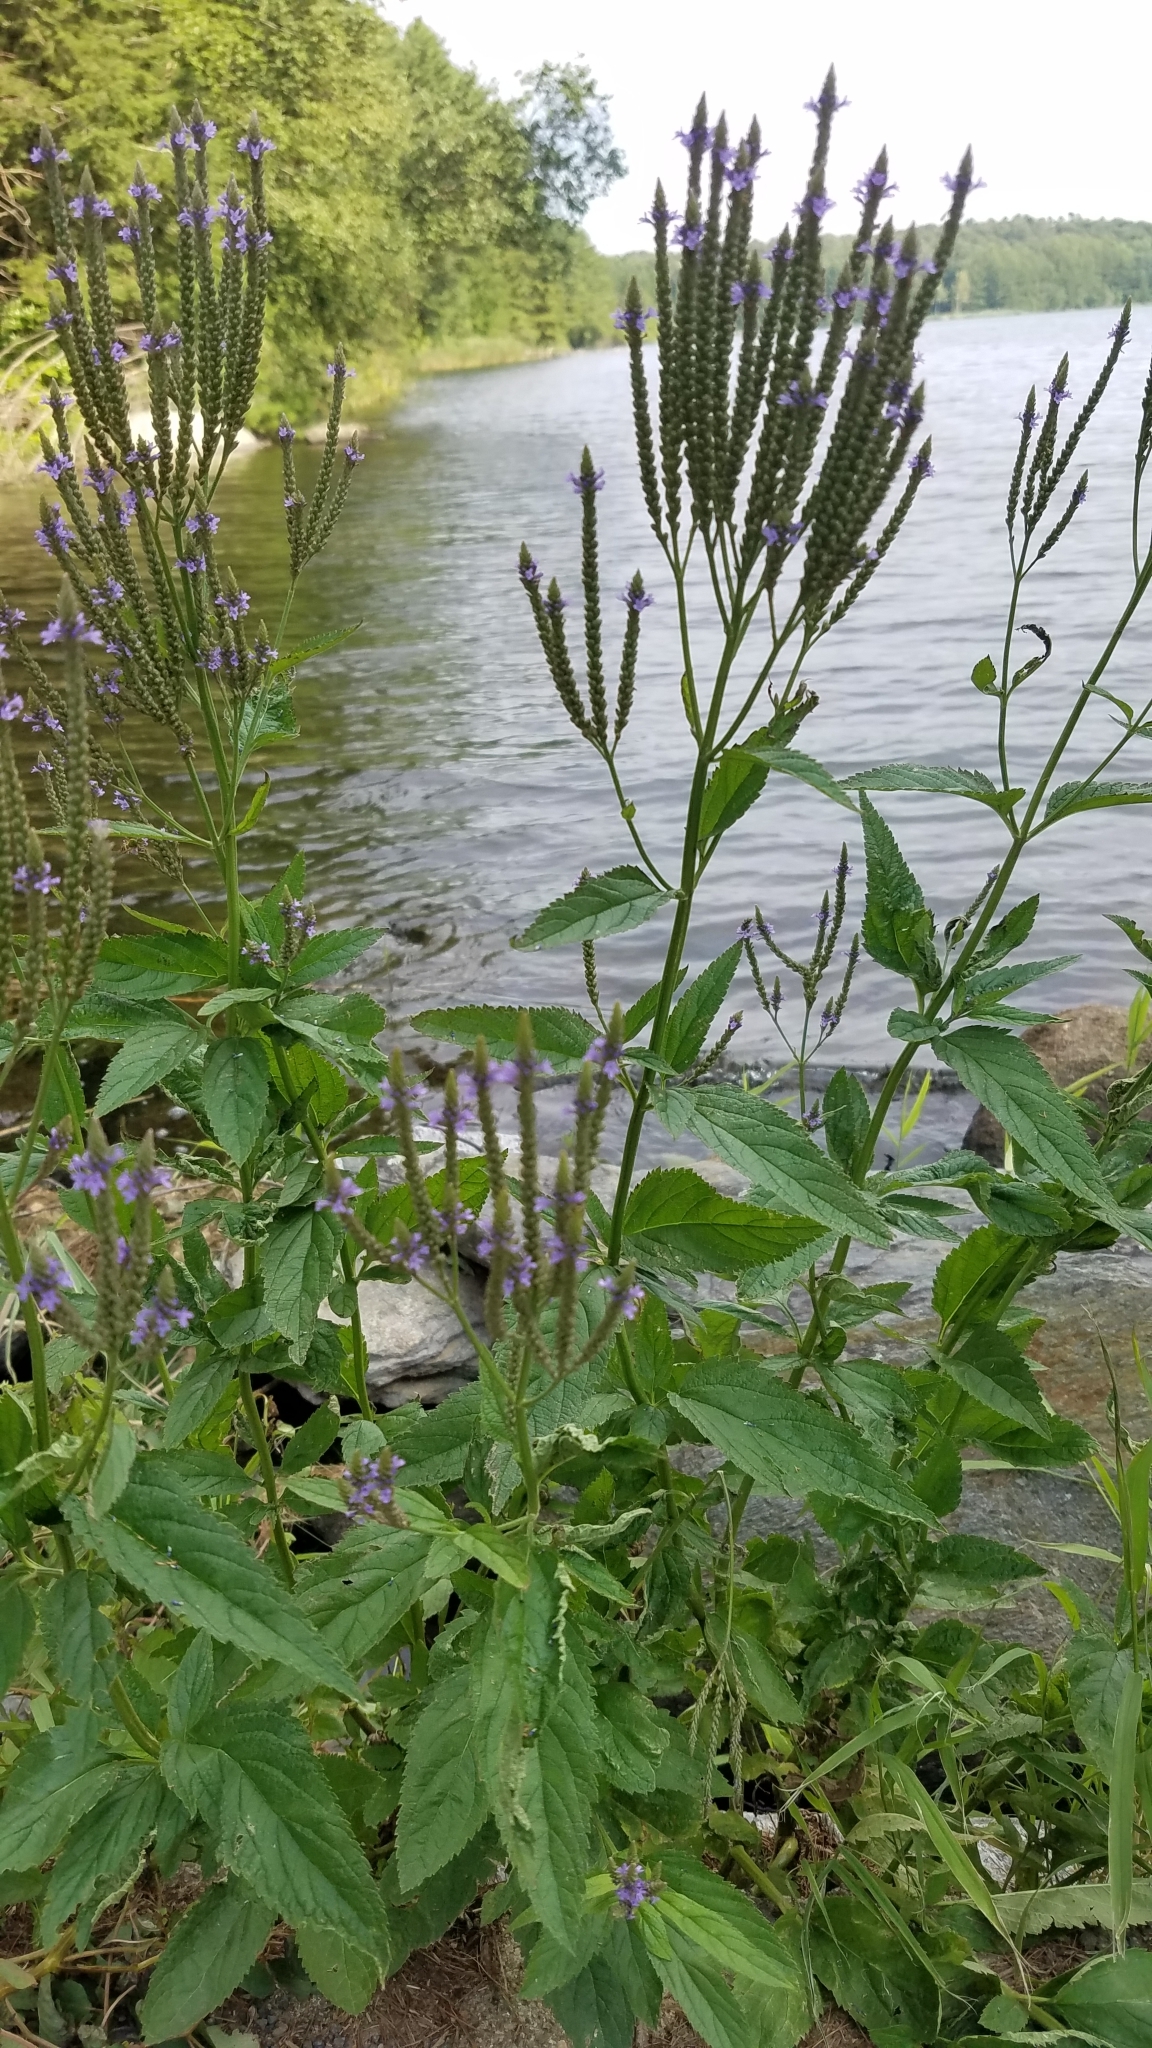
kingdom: Plantae
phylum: Tracheophyta
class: Magnoliopsida
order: Lamiales
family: Verbenaceae
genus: Verbena
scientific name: Verbena hastata
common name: American blue vervain
